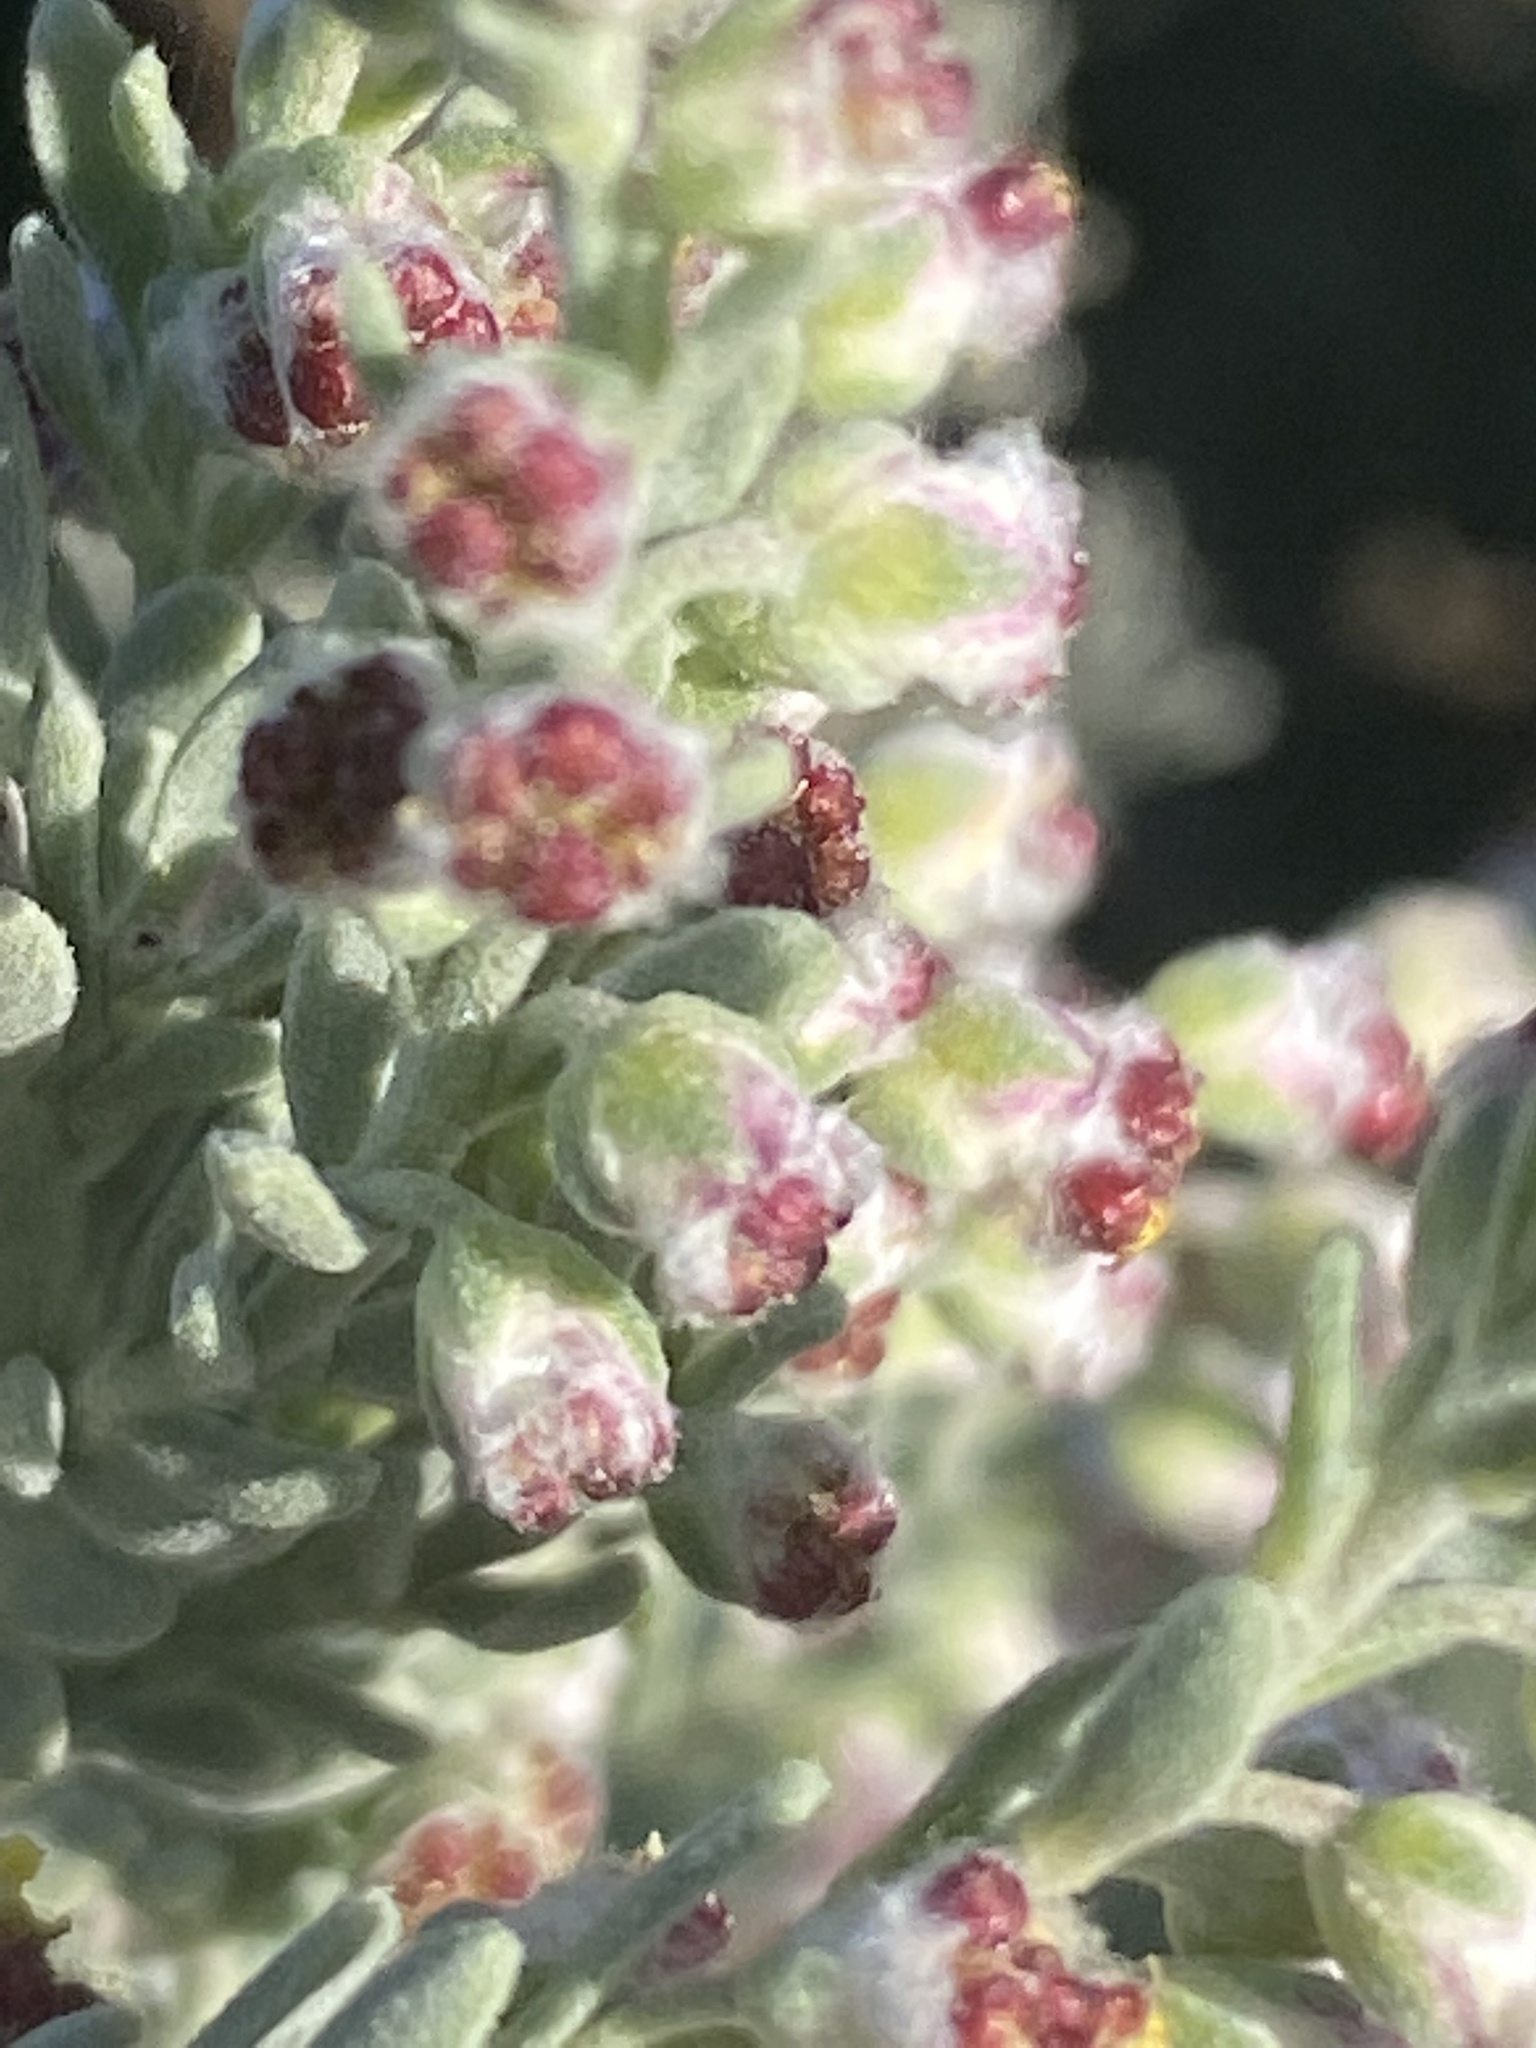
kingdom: Plantae
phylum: Tracheophyta
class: Magnoliopsida
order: Asterales
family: Asteraceae
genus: Eriocephalus
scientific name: Eriocephalus racemosus
